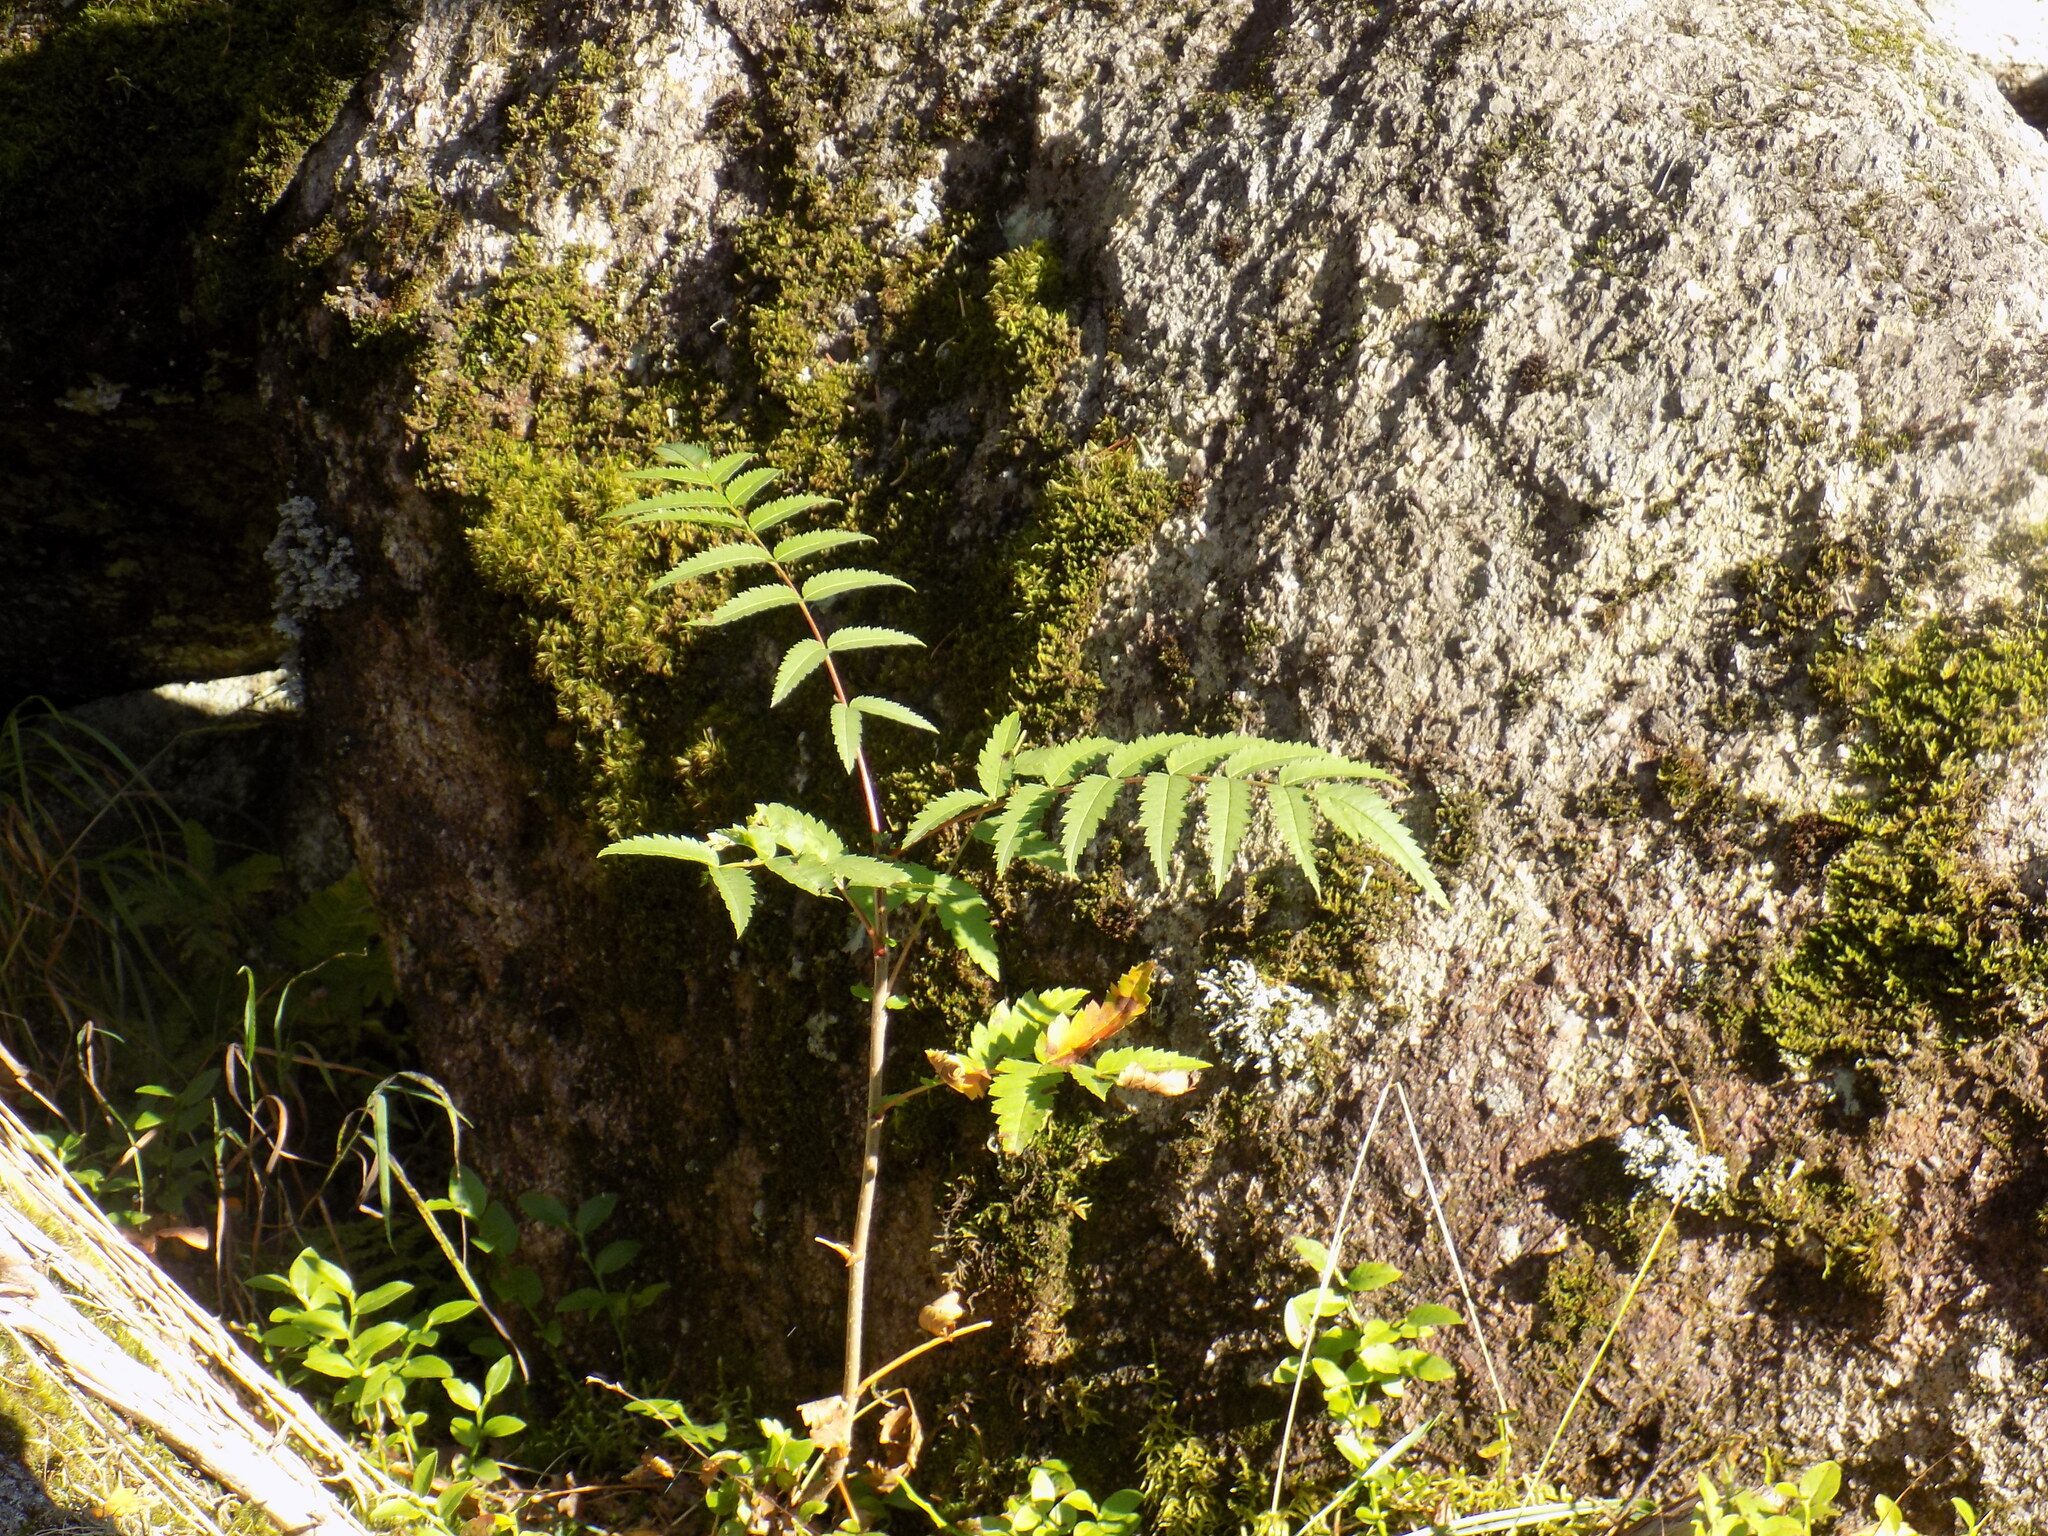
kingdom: Plantae
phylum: Tracheophyta
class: Magnoliopsida
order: Rosales
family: Rosaceae
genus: Sorbus
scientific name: Sorbus aucuparia
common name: Rowan
